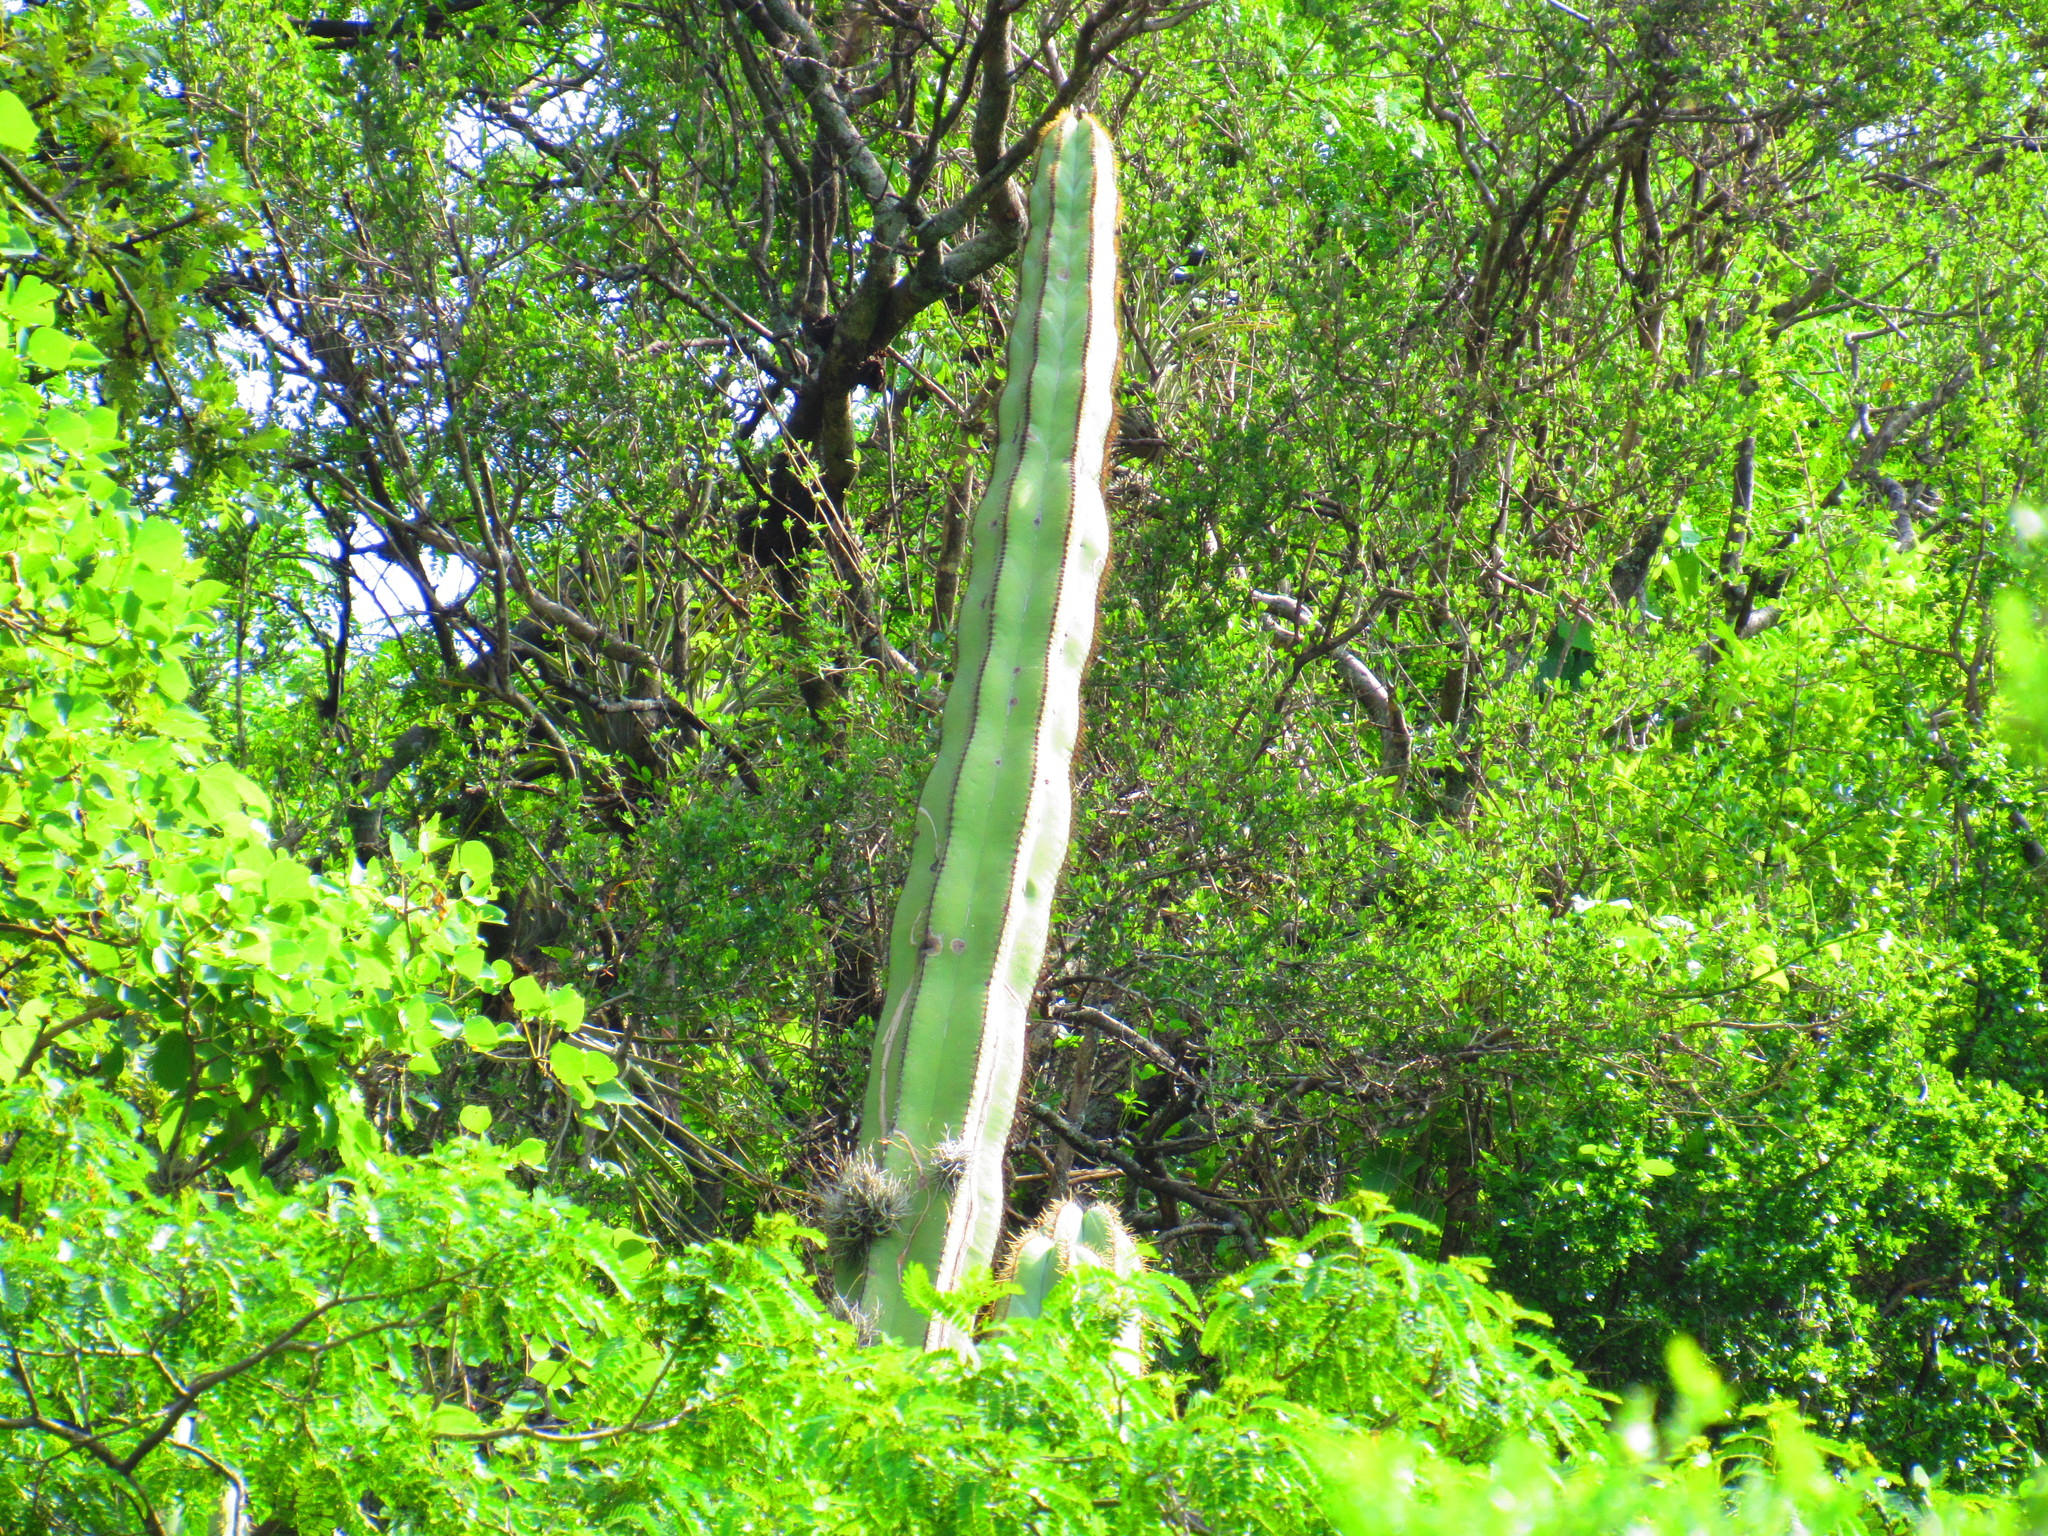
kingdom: Plantae
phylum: Tracheophyta
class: Magnoliopsida
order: Caryophyllales
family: Cactaceae
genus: Stenocereus
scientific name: Stenocereus dumortieri
